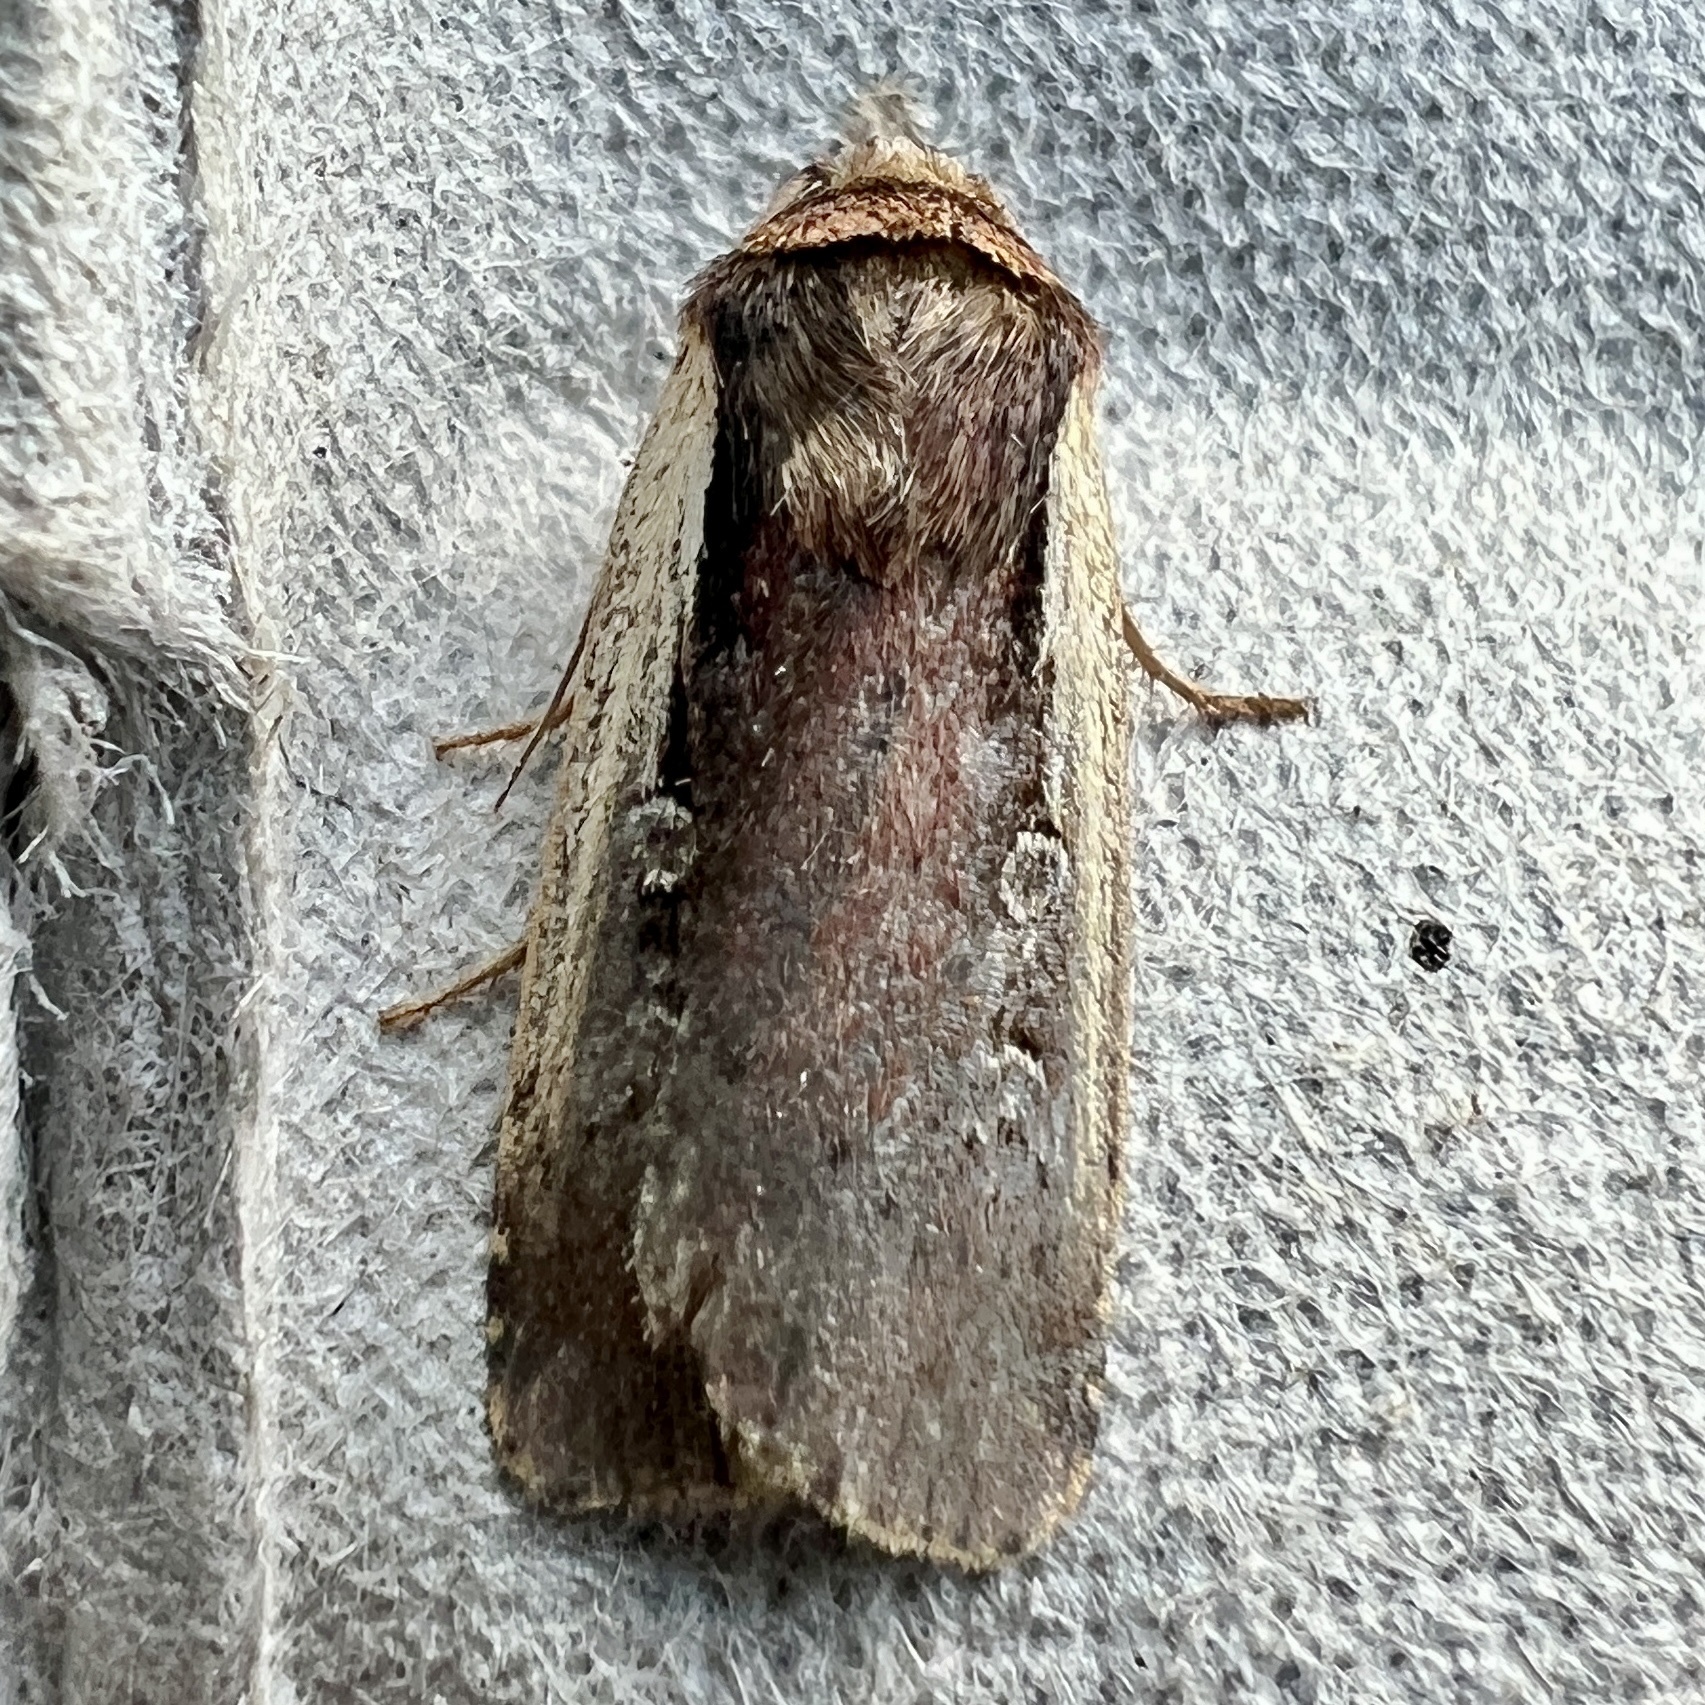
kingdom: Animalia
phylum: Arthropoda
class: Insecta
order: Lepidoptera
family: Noctuidae
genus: Ochropleura
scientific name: Ochropleura implecta
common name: Flame-shouldered dart
